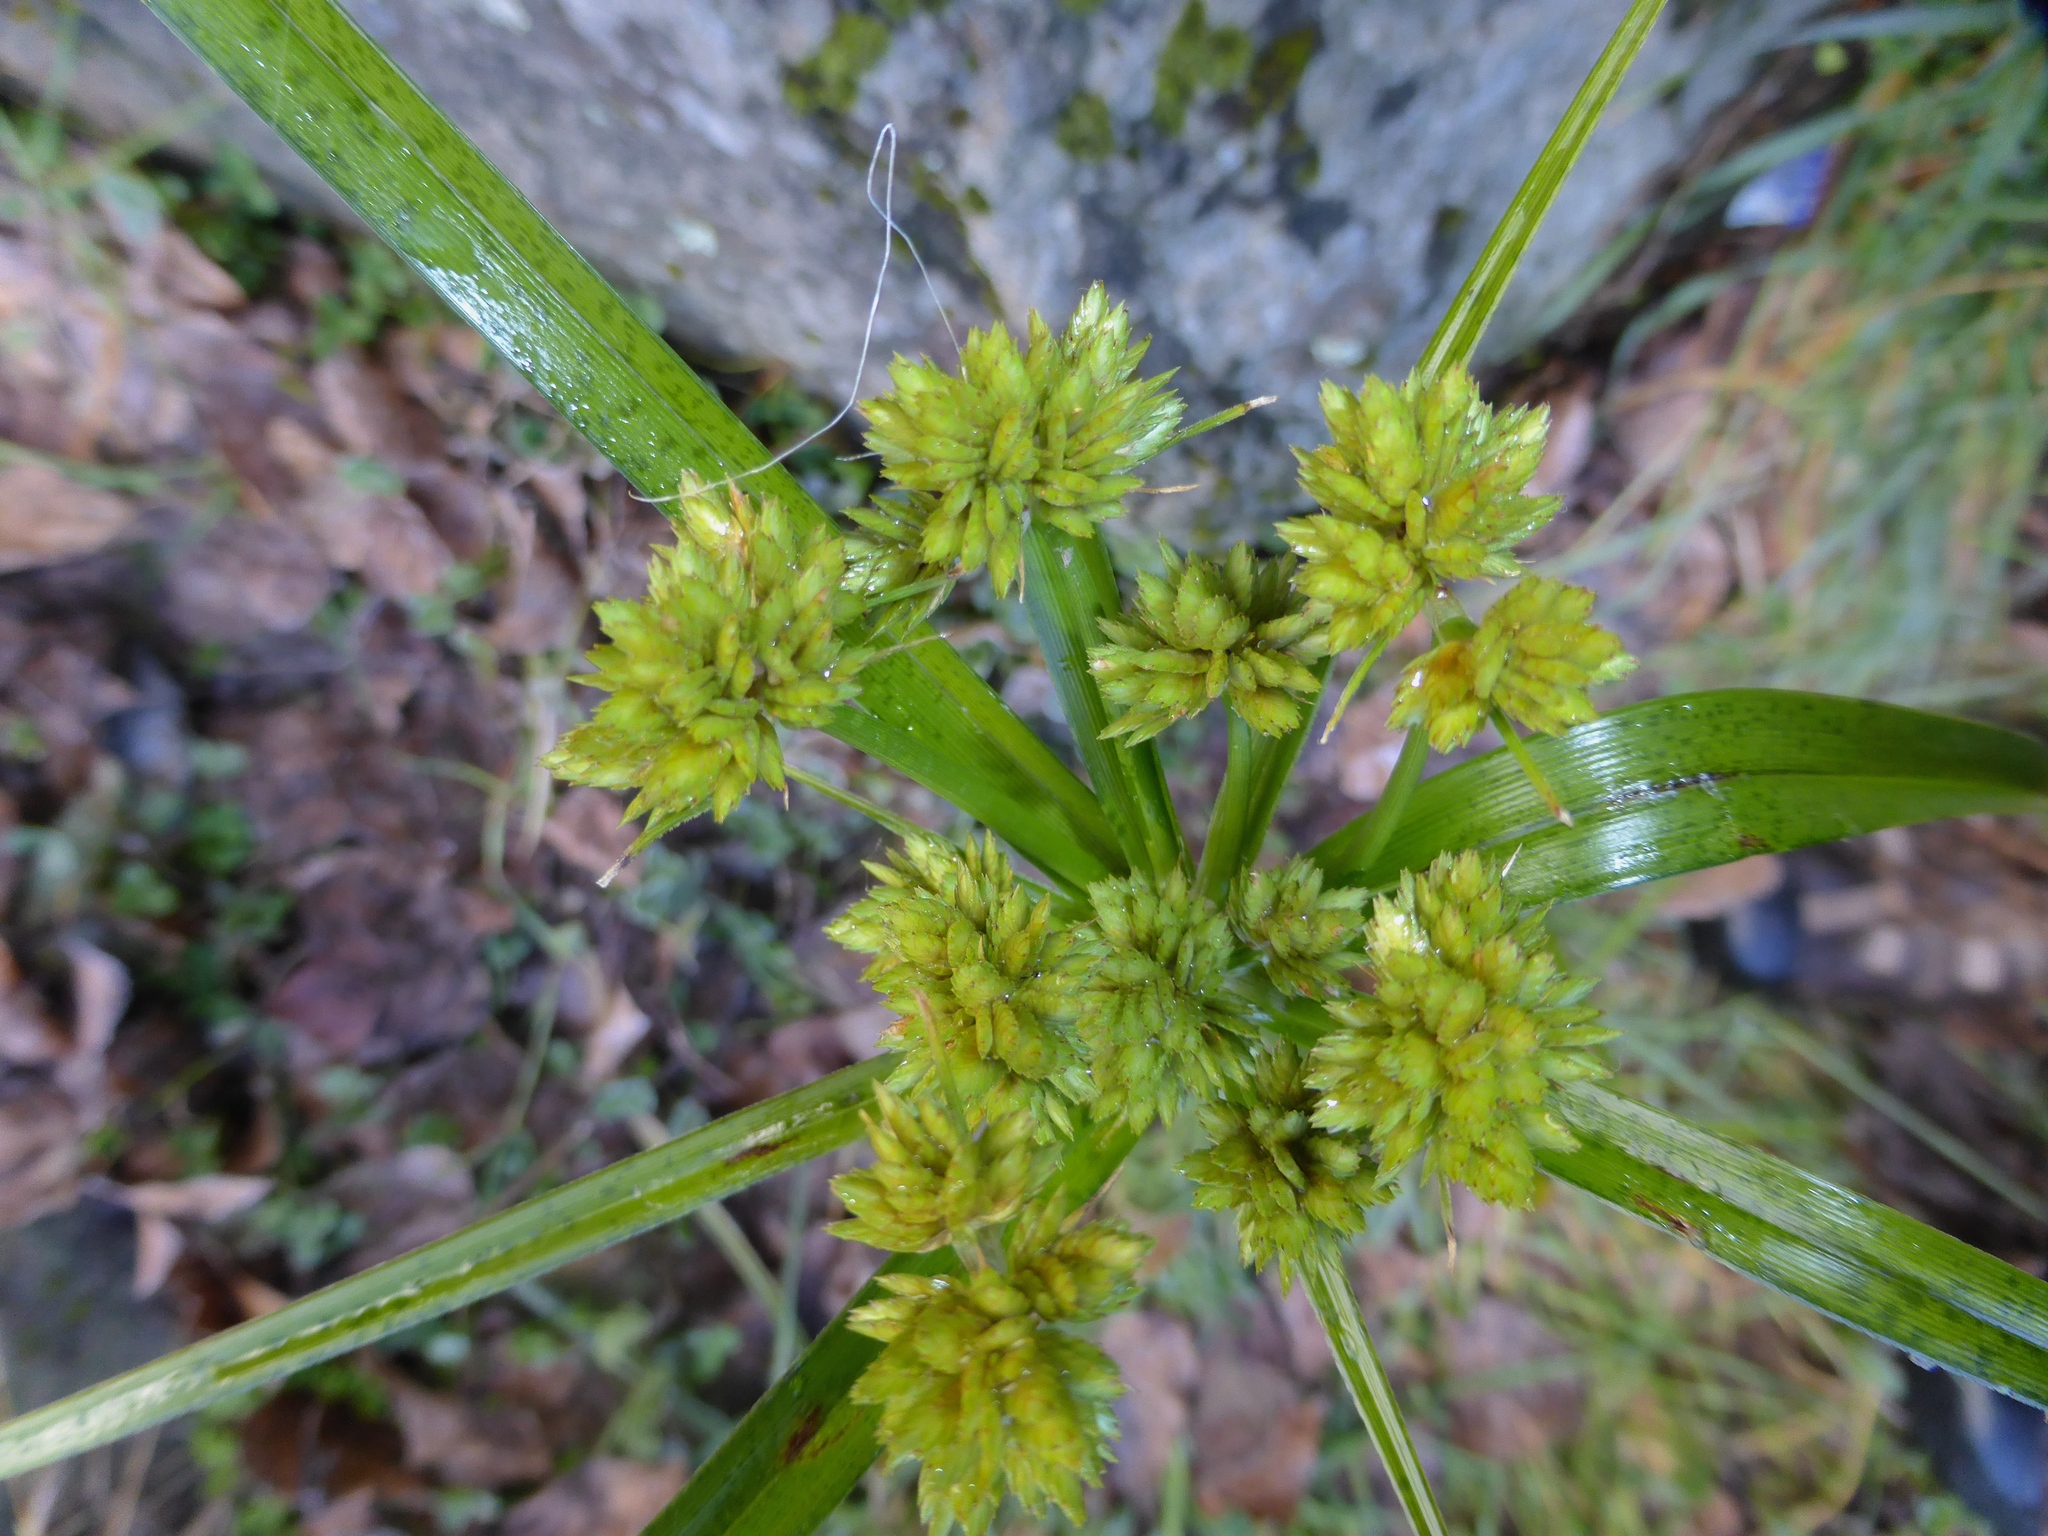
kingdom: Plantae
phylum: Tracheophyta
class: Liliopsida
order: Poales
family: Cyperaceae
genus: Cyperus
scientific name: Cyperus eragrostis
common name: Tall flatsedge
